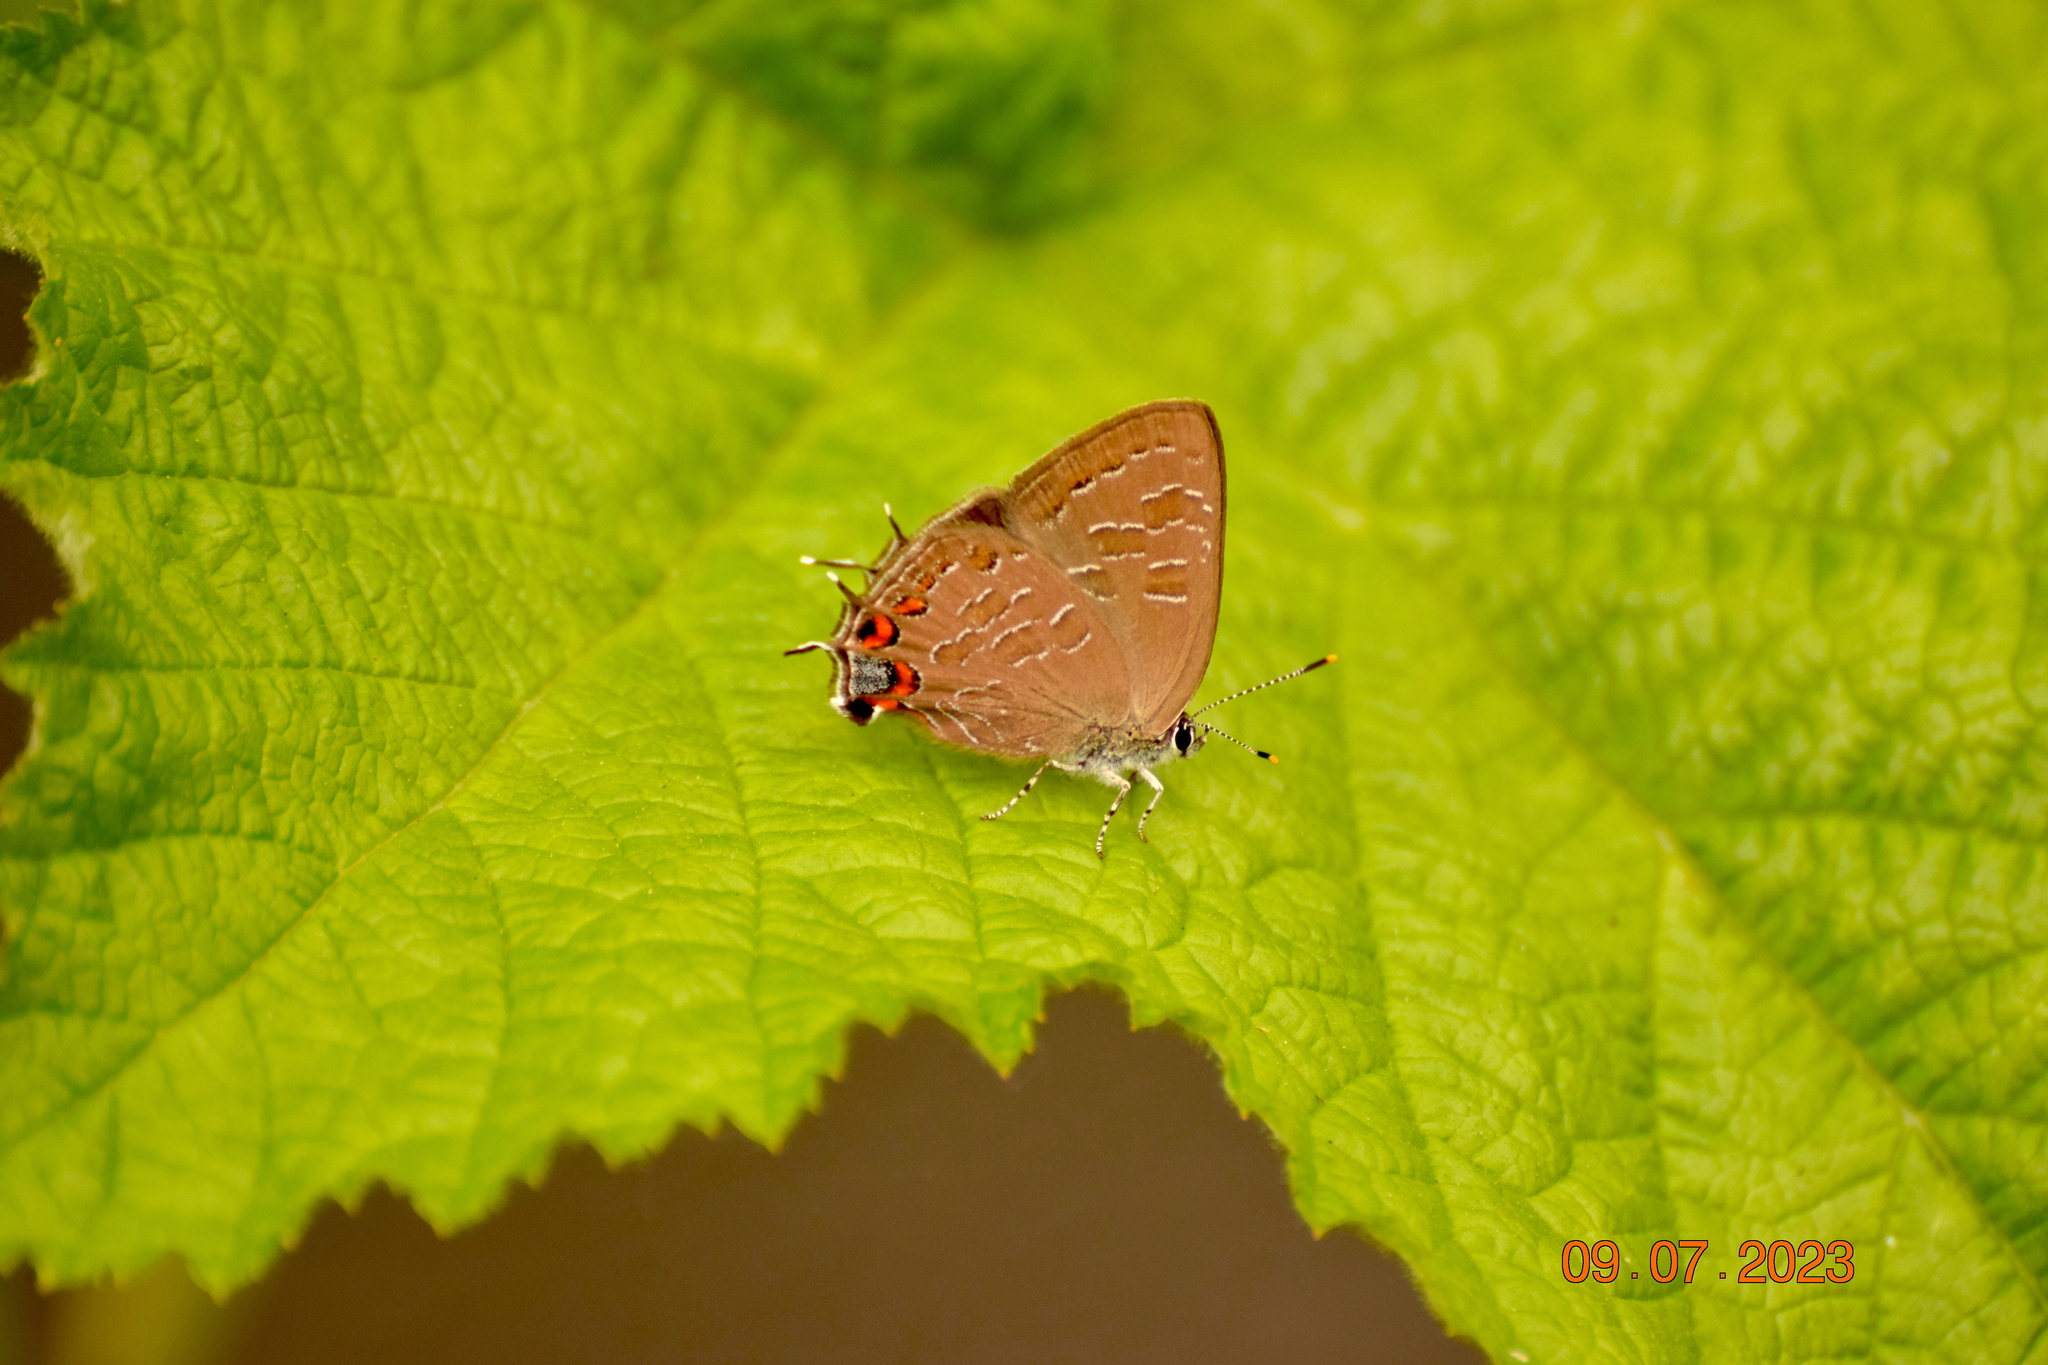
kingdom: Animalia
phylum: Arthropoda
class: Insecta
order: Lepidoptera
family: Lycaenidae
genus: Satyrium
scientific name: Satyrium liparops
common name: Striped hairstreak
